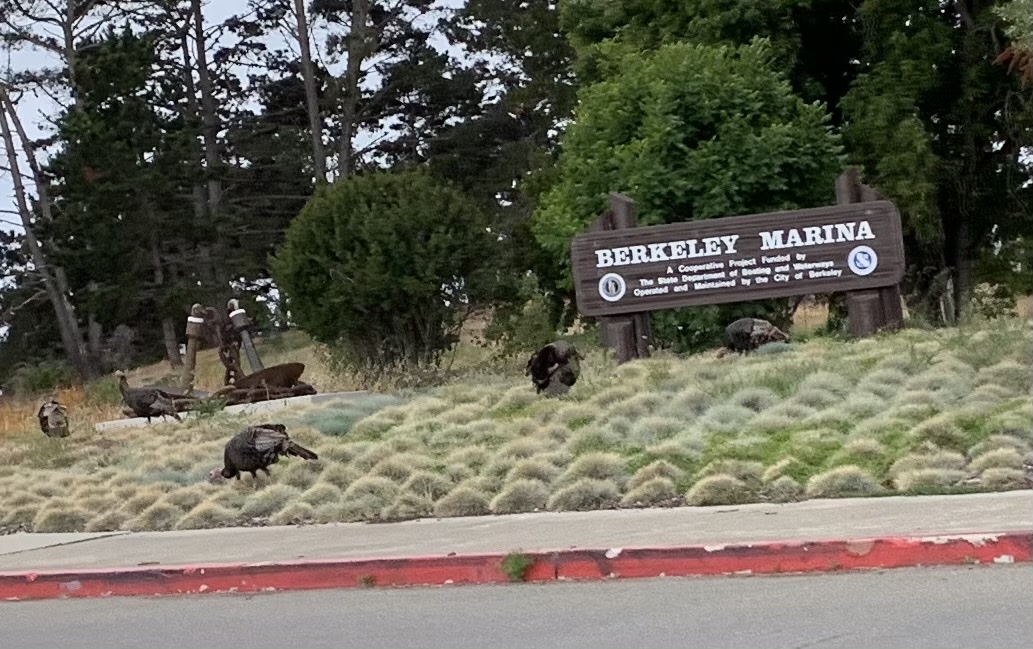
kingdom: Animalia
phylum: Chordata
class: Aves
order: Galliformes
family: Phasianidae
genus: Meleagris
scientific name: Meleagris gallopavo
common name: Wild turkey
